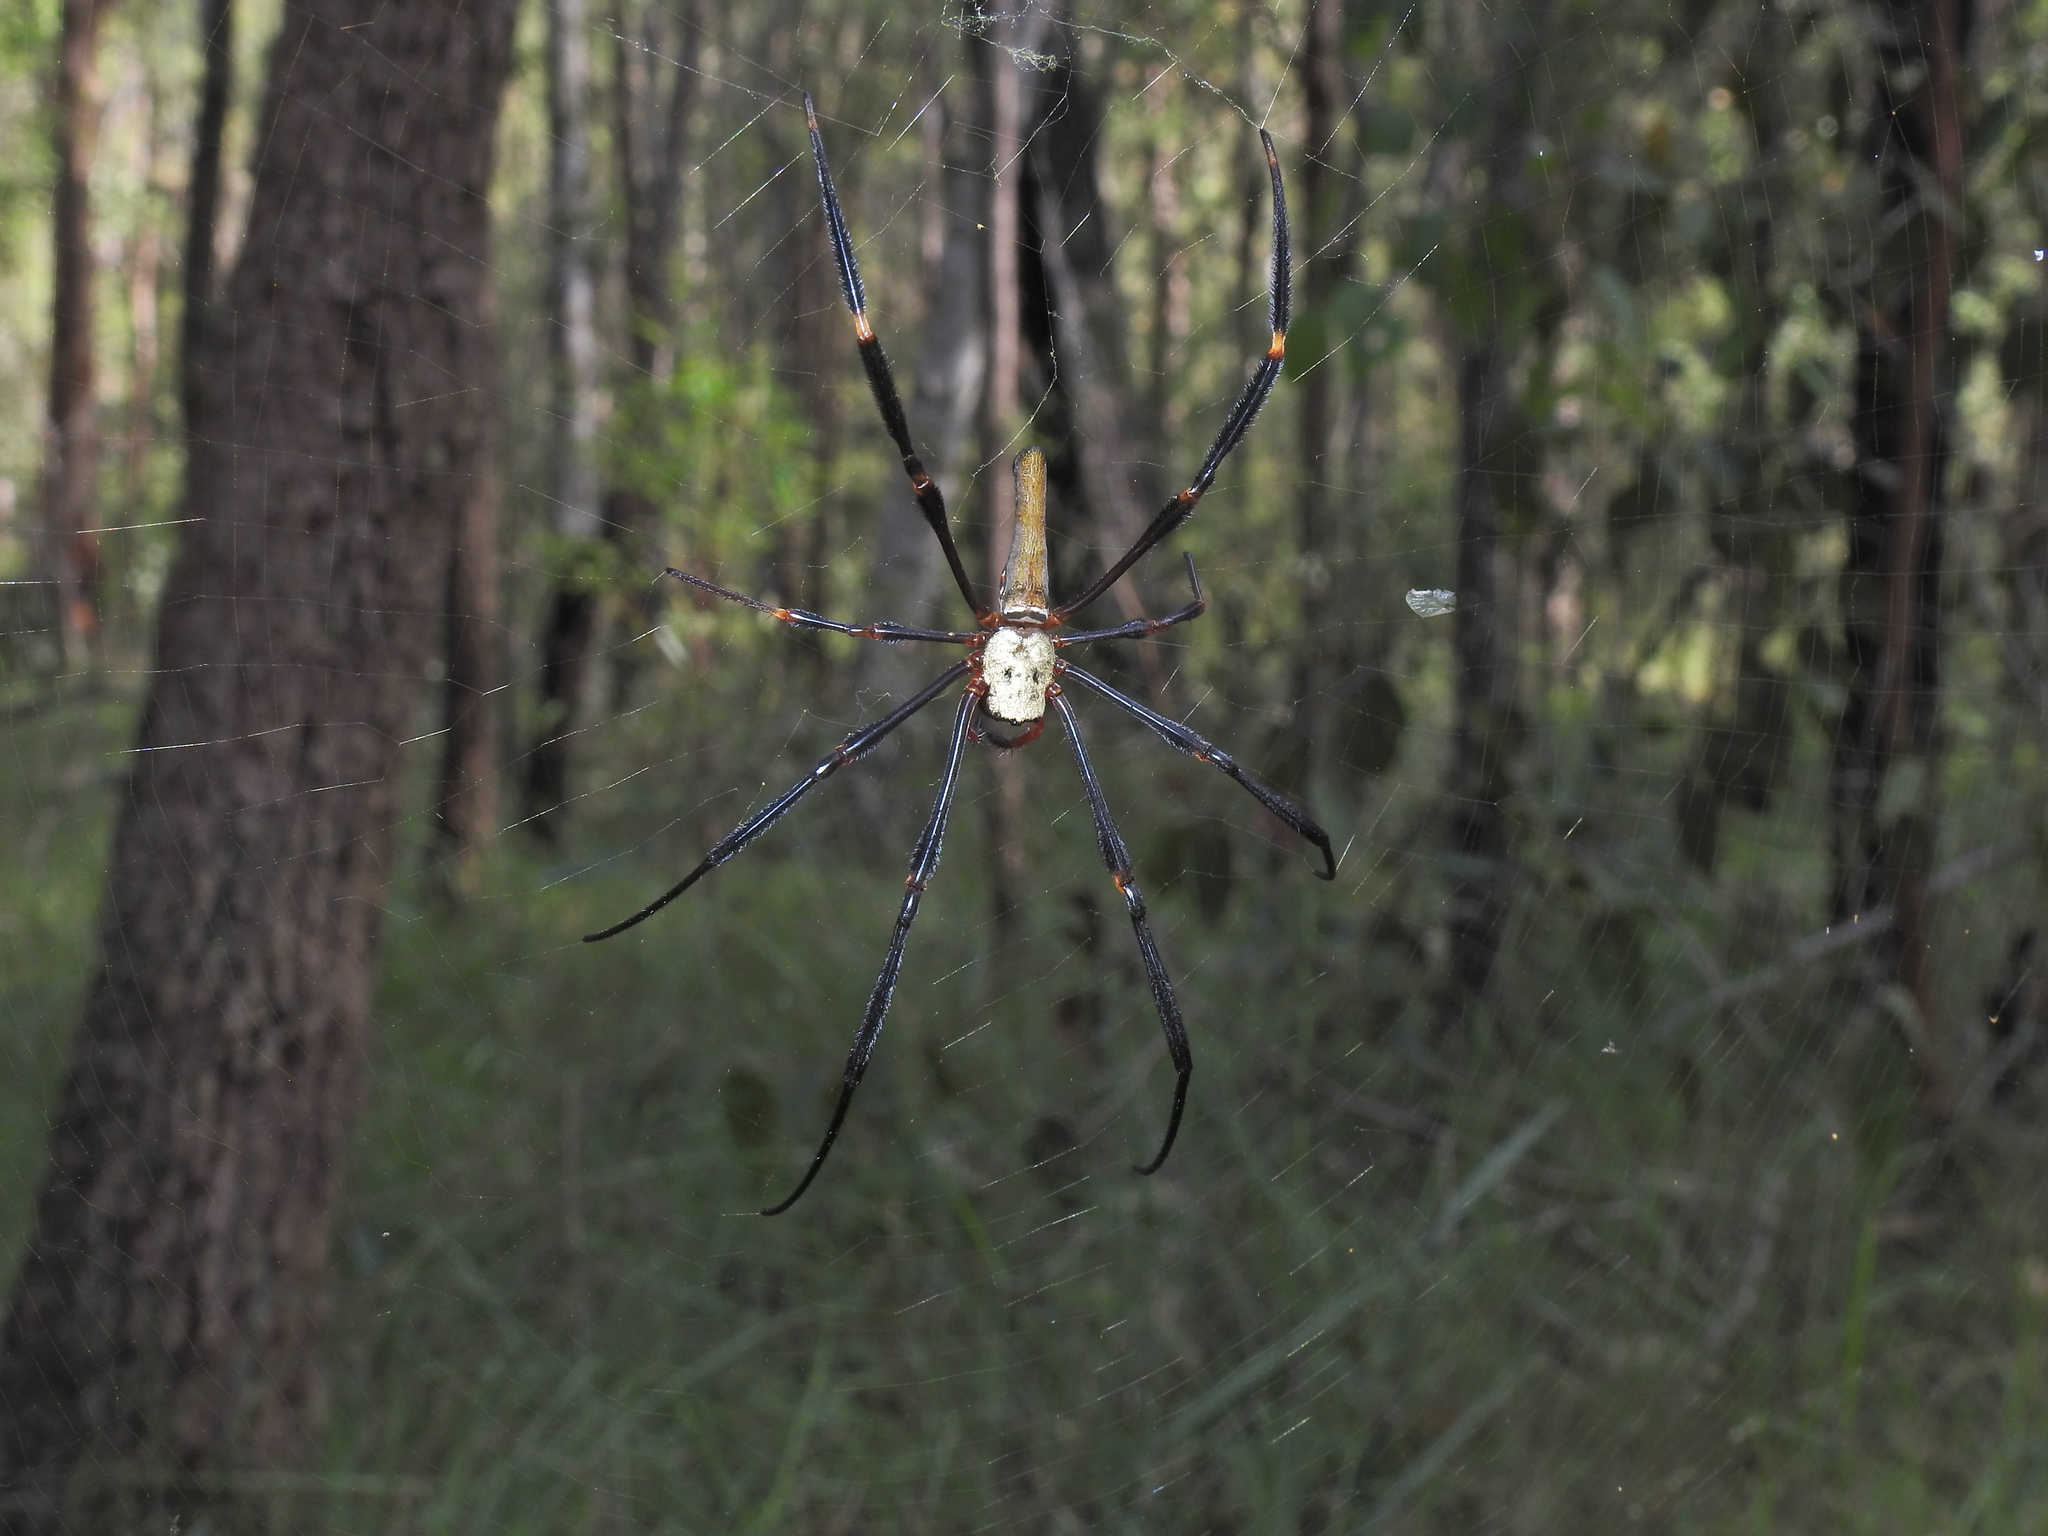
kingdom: Animalia
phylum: Arthropoda
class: Arachnida
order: Araneae
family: Araneidae
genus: Nephila
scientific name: Nephila pilipes
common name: Giant golden orb weaver
